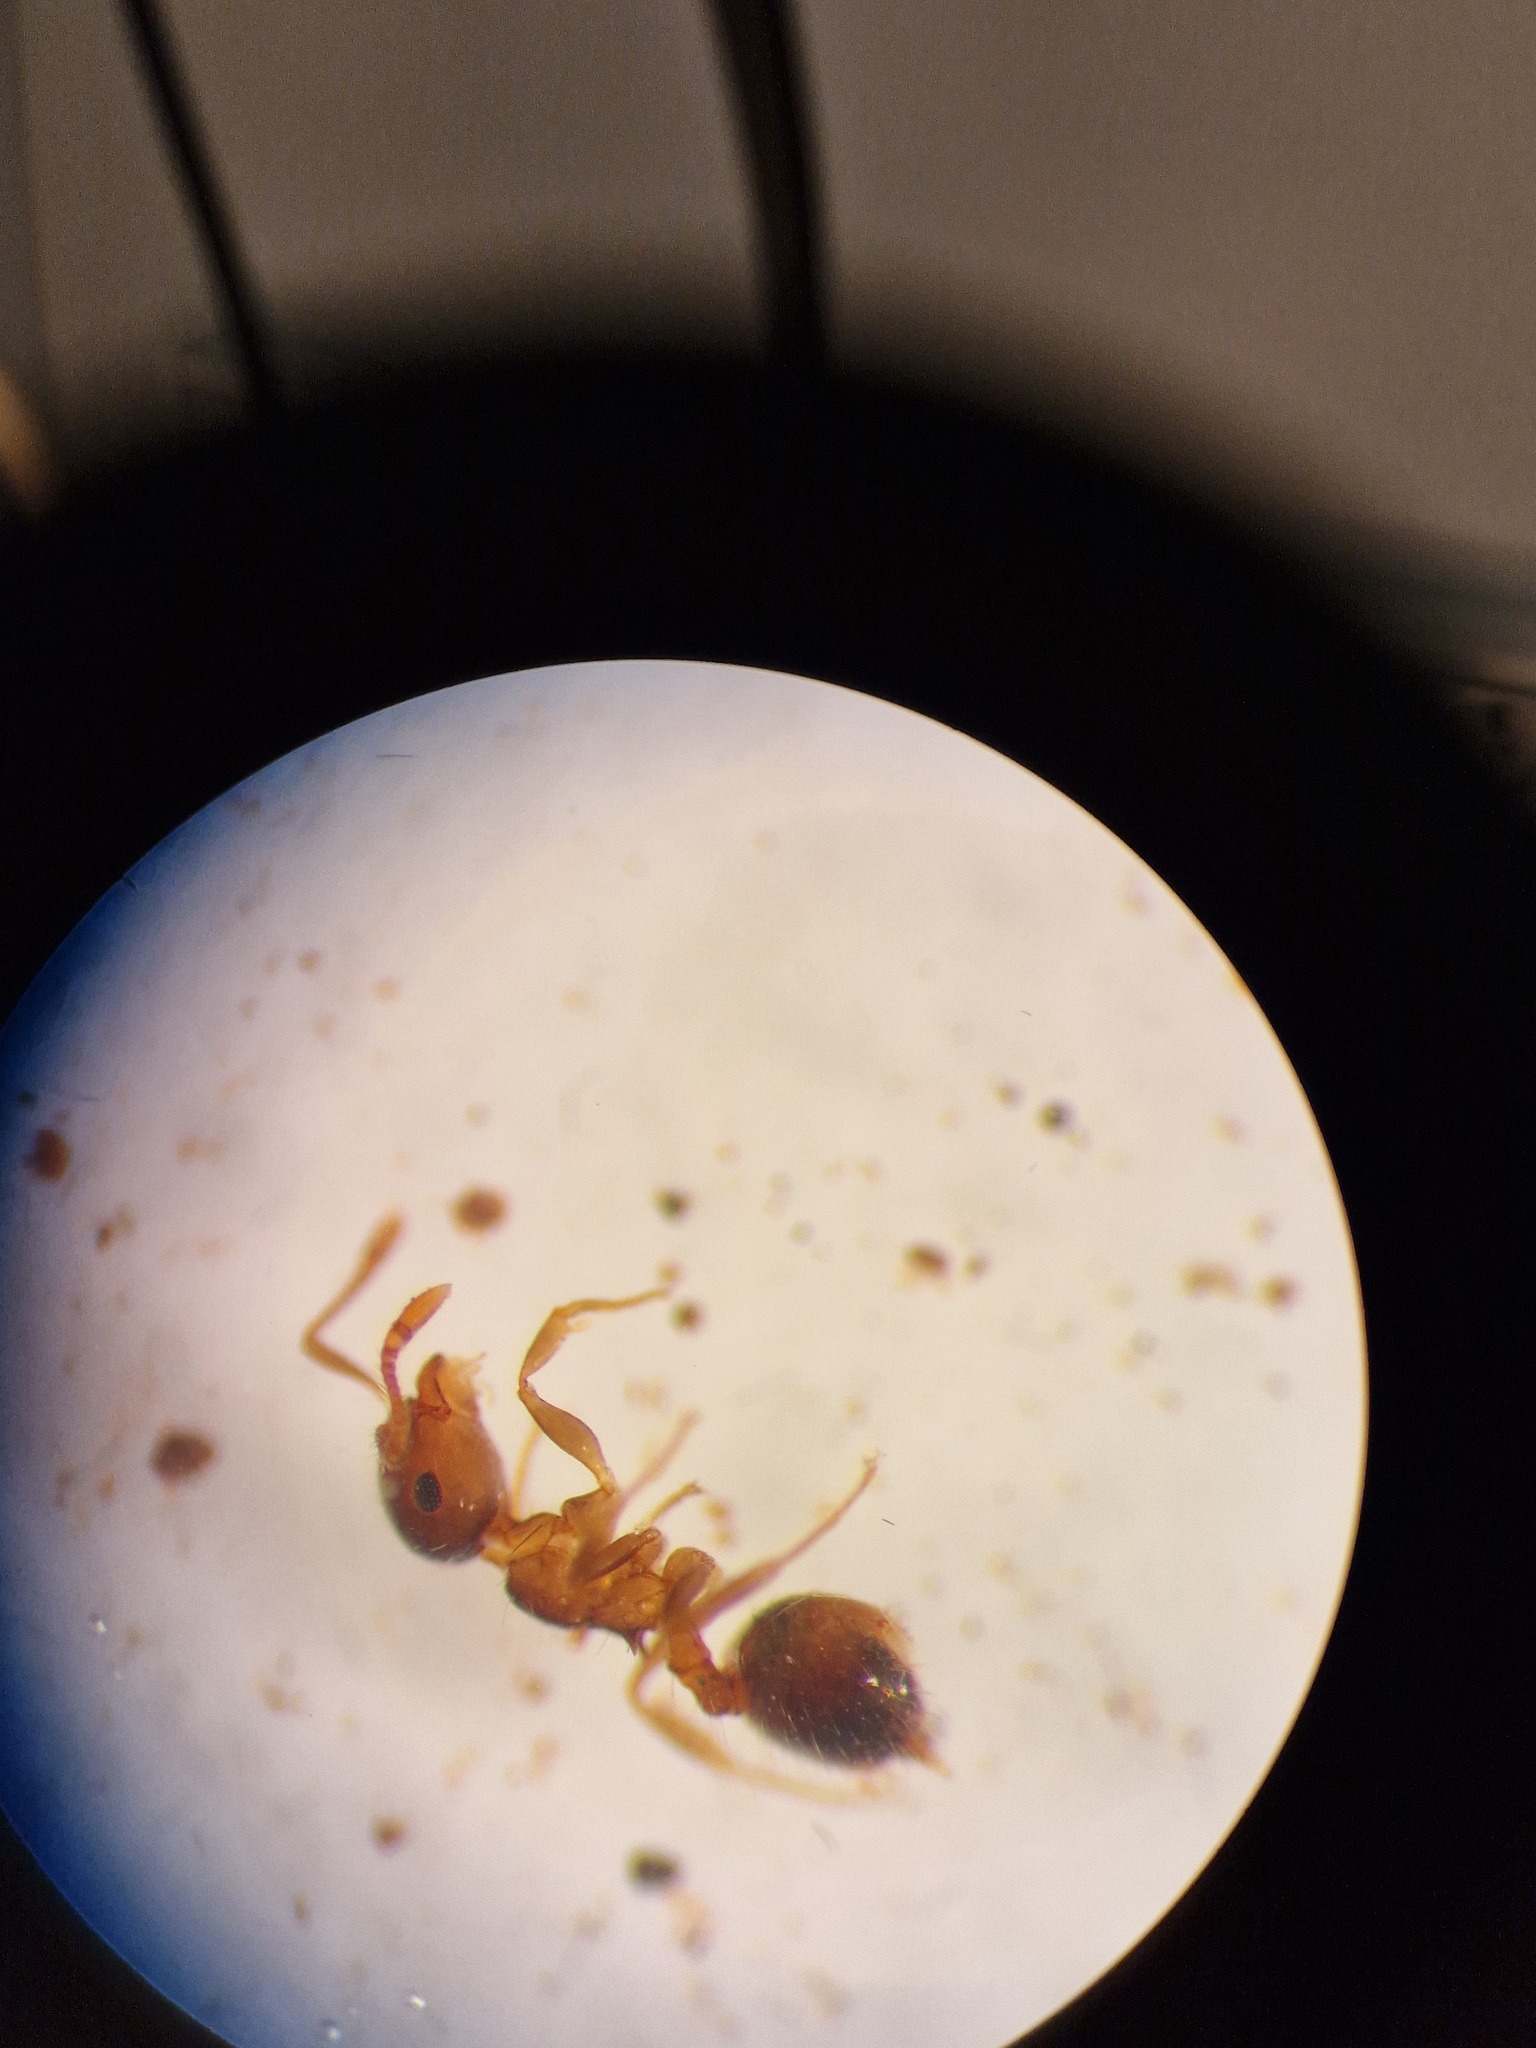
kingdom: Animalia
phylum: Arthropoda
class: Insecta
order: Hymenoptera
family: Formicidae
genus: Crematogaster
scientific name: Crematogaster sordidula
